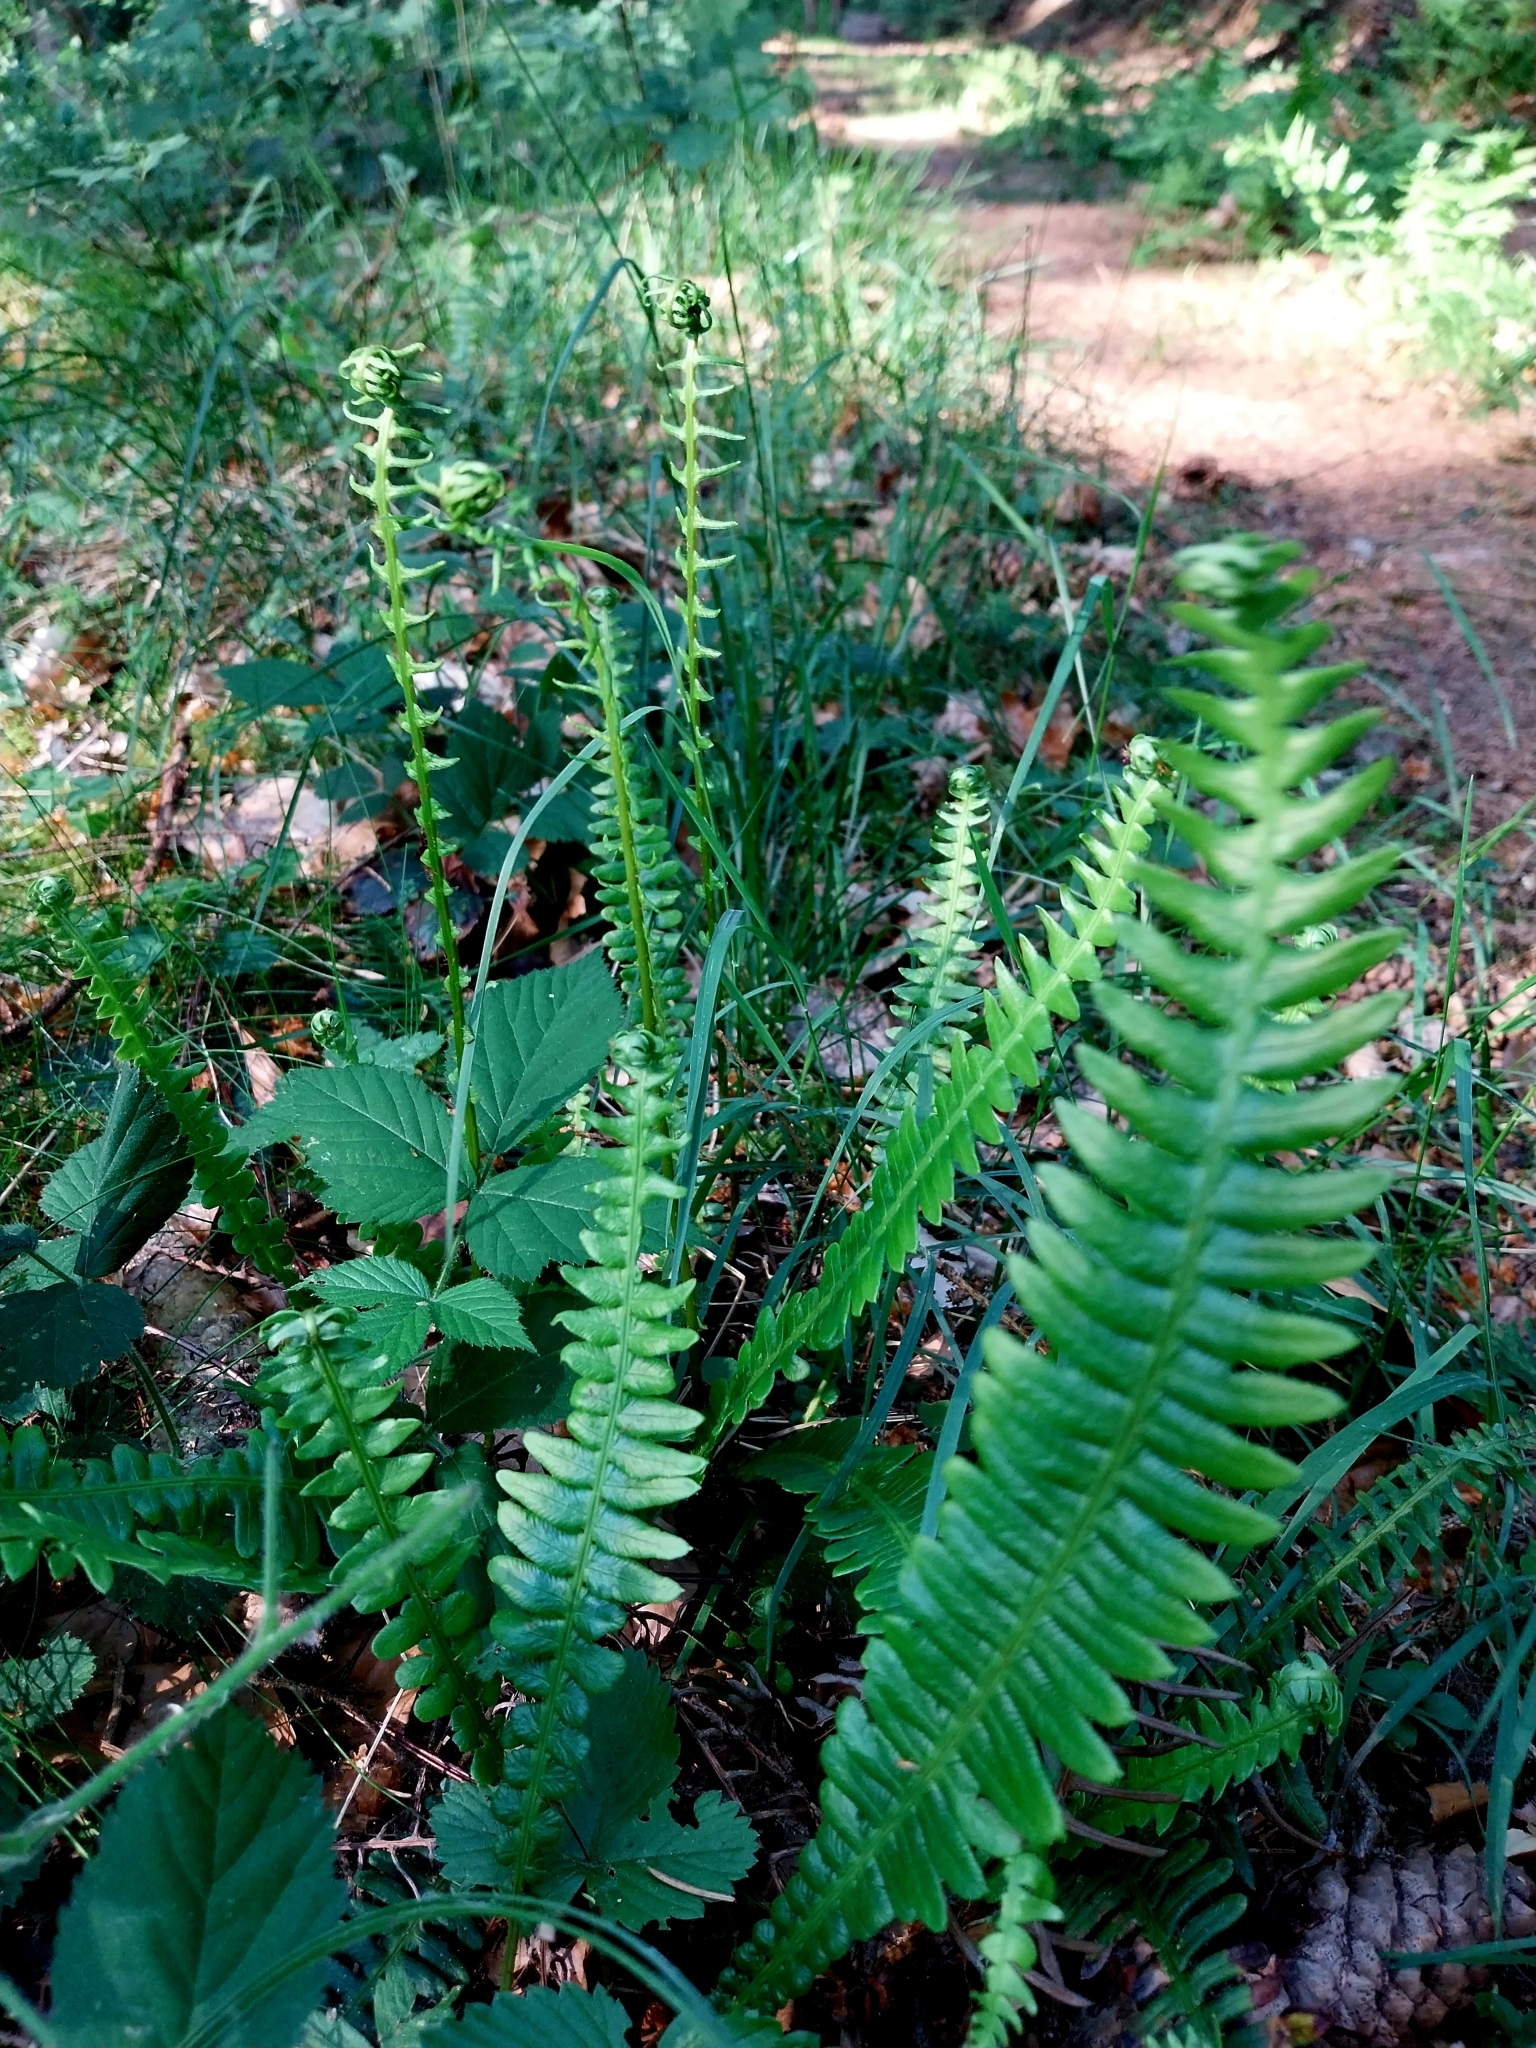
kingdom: Plantae
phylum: Tracheophyta
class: Polypodiopsida
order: Polypodiales
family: Blechnaceae
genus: Struthiopteris
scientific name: Struthiopteris spicant
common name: Deer fern
